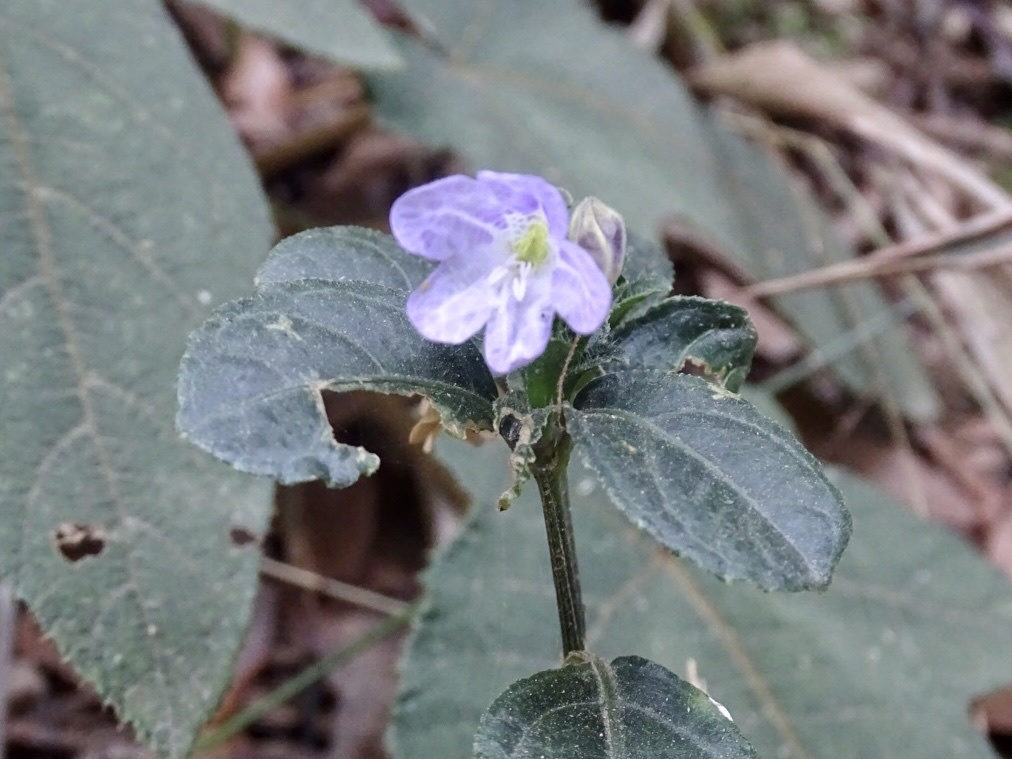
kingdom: Plantae
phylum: Tracheophyta
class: Magnoliopsida
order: Lamiales
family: Acanthaceae
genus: Strobilanthes
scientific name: Strobilanthes tetrasperma
